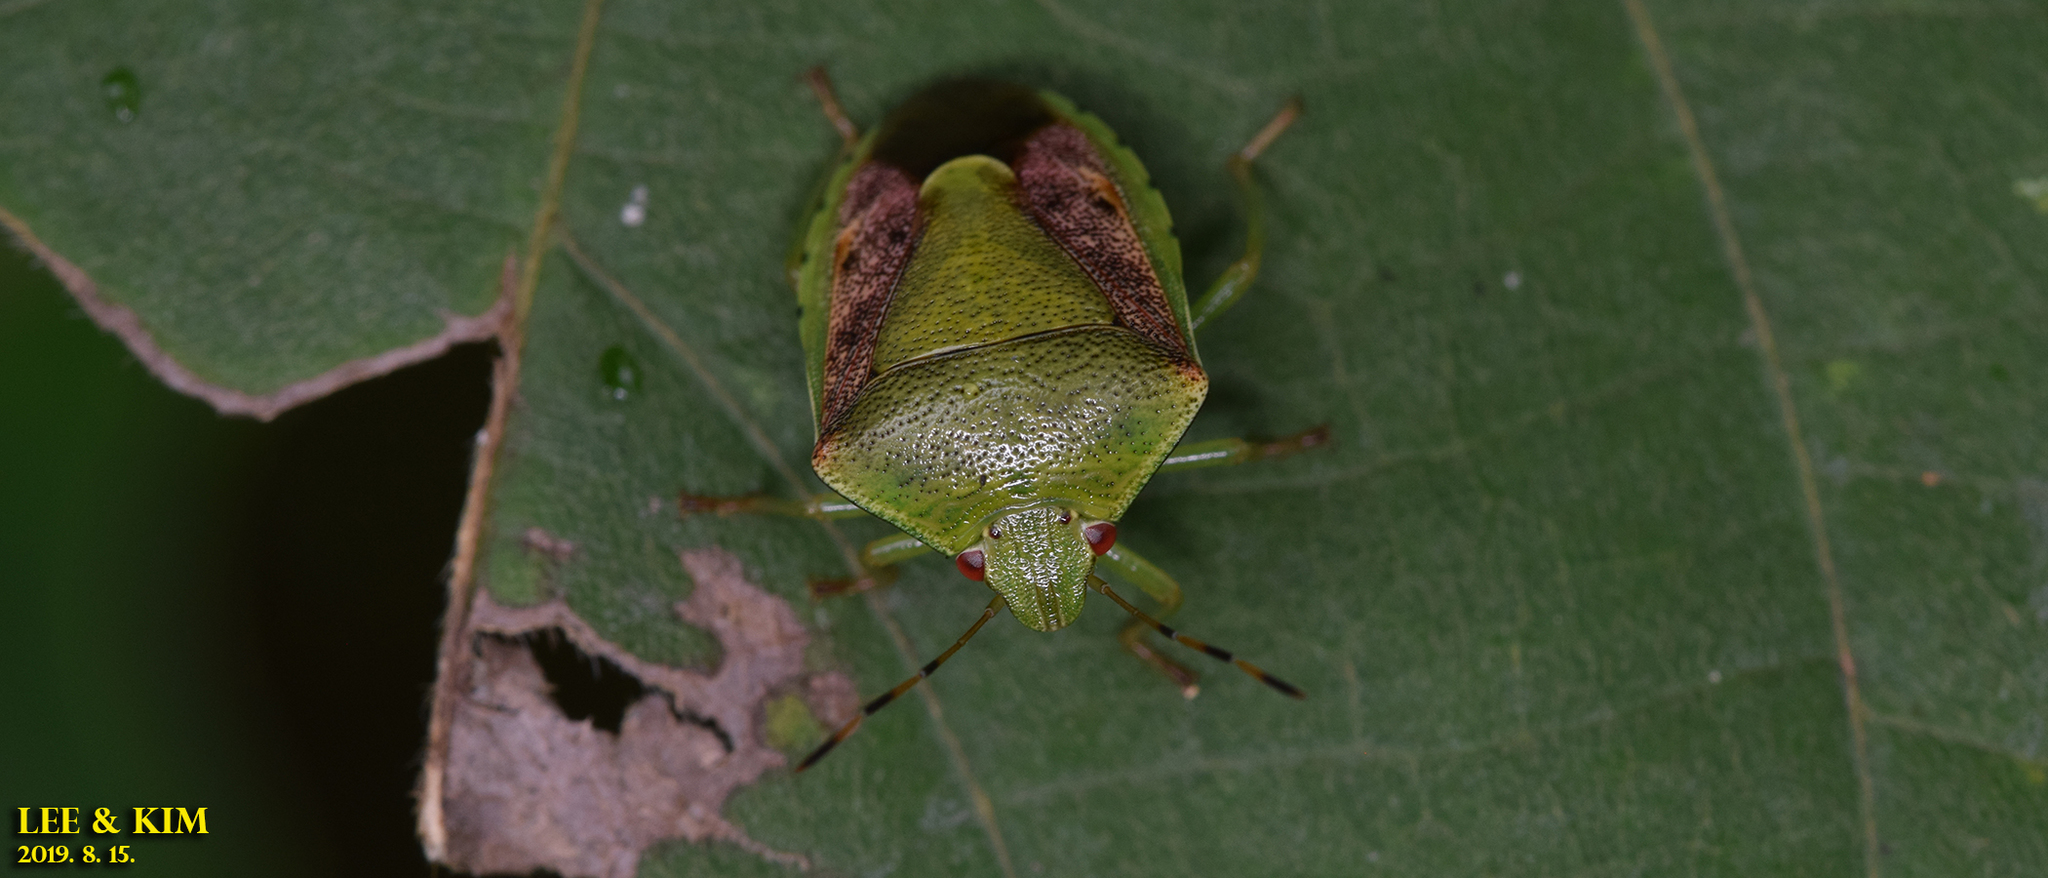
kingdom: Animalia
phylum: Arthropoda
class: Insecta
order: Hemiptera
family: Pentatomidae
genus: Plautia
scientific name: Plautia stali
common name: Stink bug
